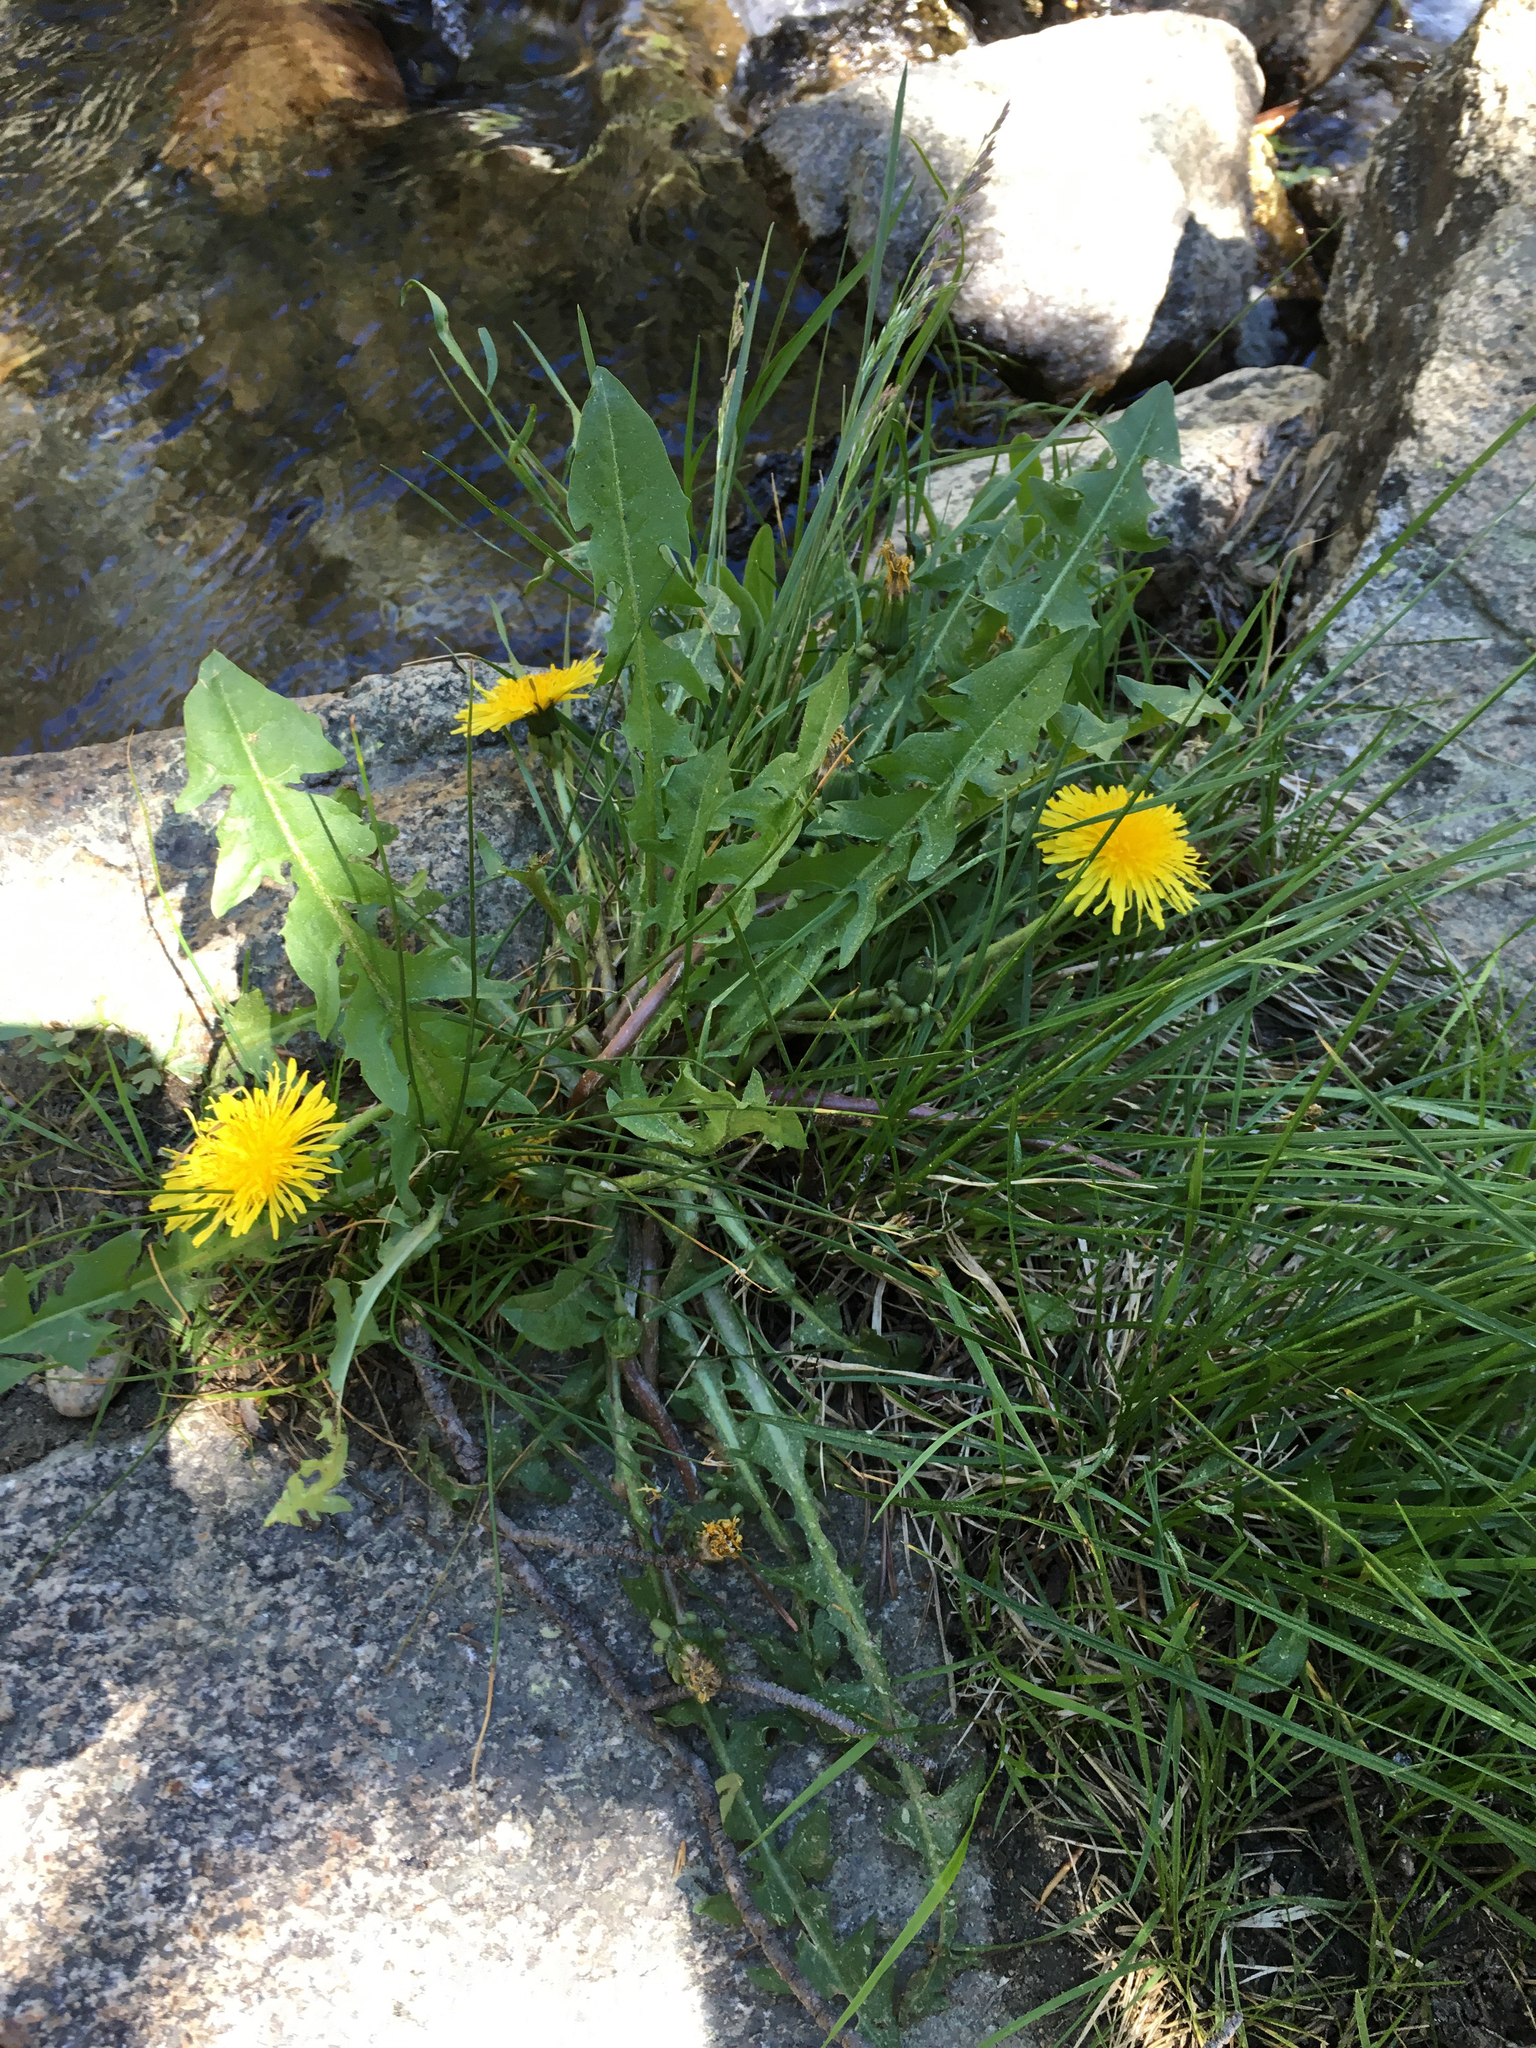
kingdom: Plantae
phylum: Tracheophyta
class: Magnoliopsida
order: Asterales
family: Asteraceae
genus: Taraxacum
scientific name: Taraxacum officinale
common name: Common dandelion
